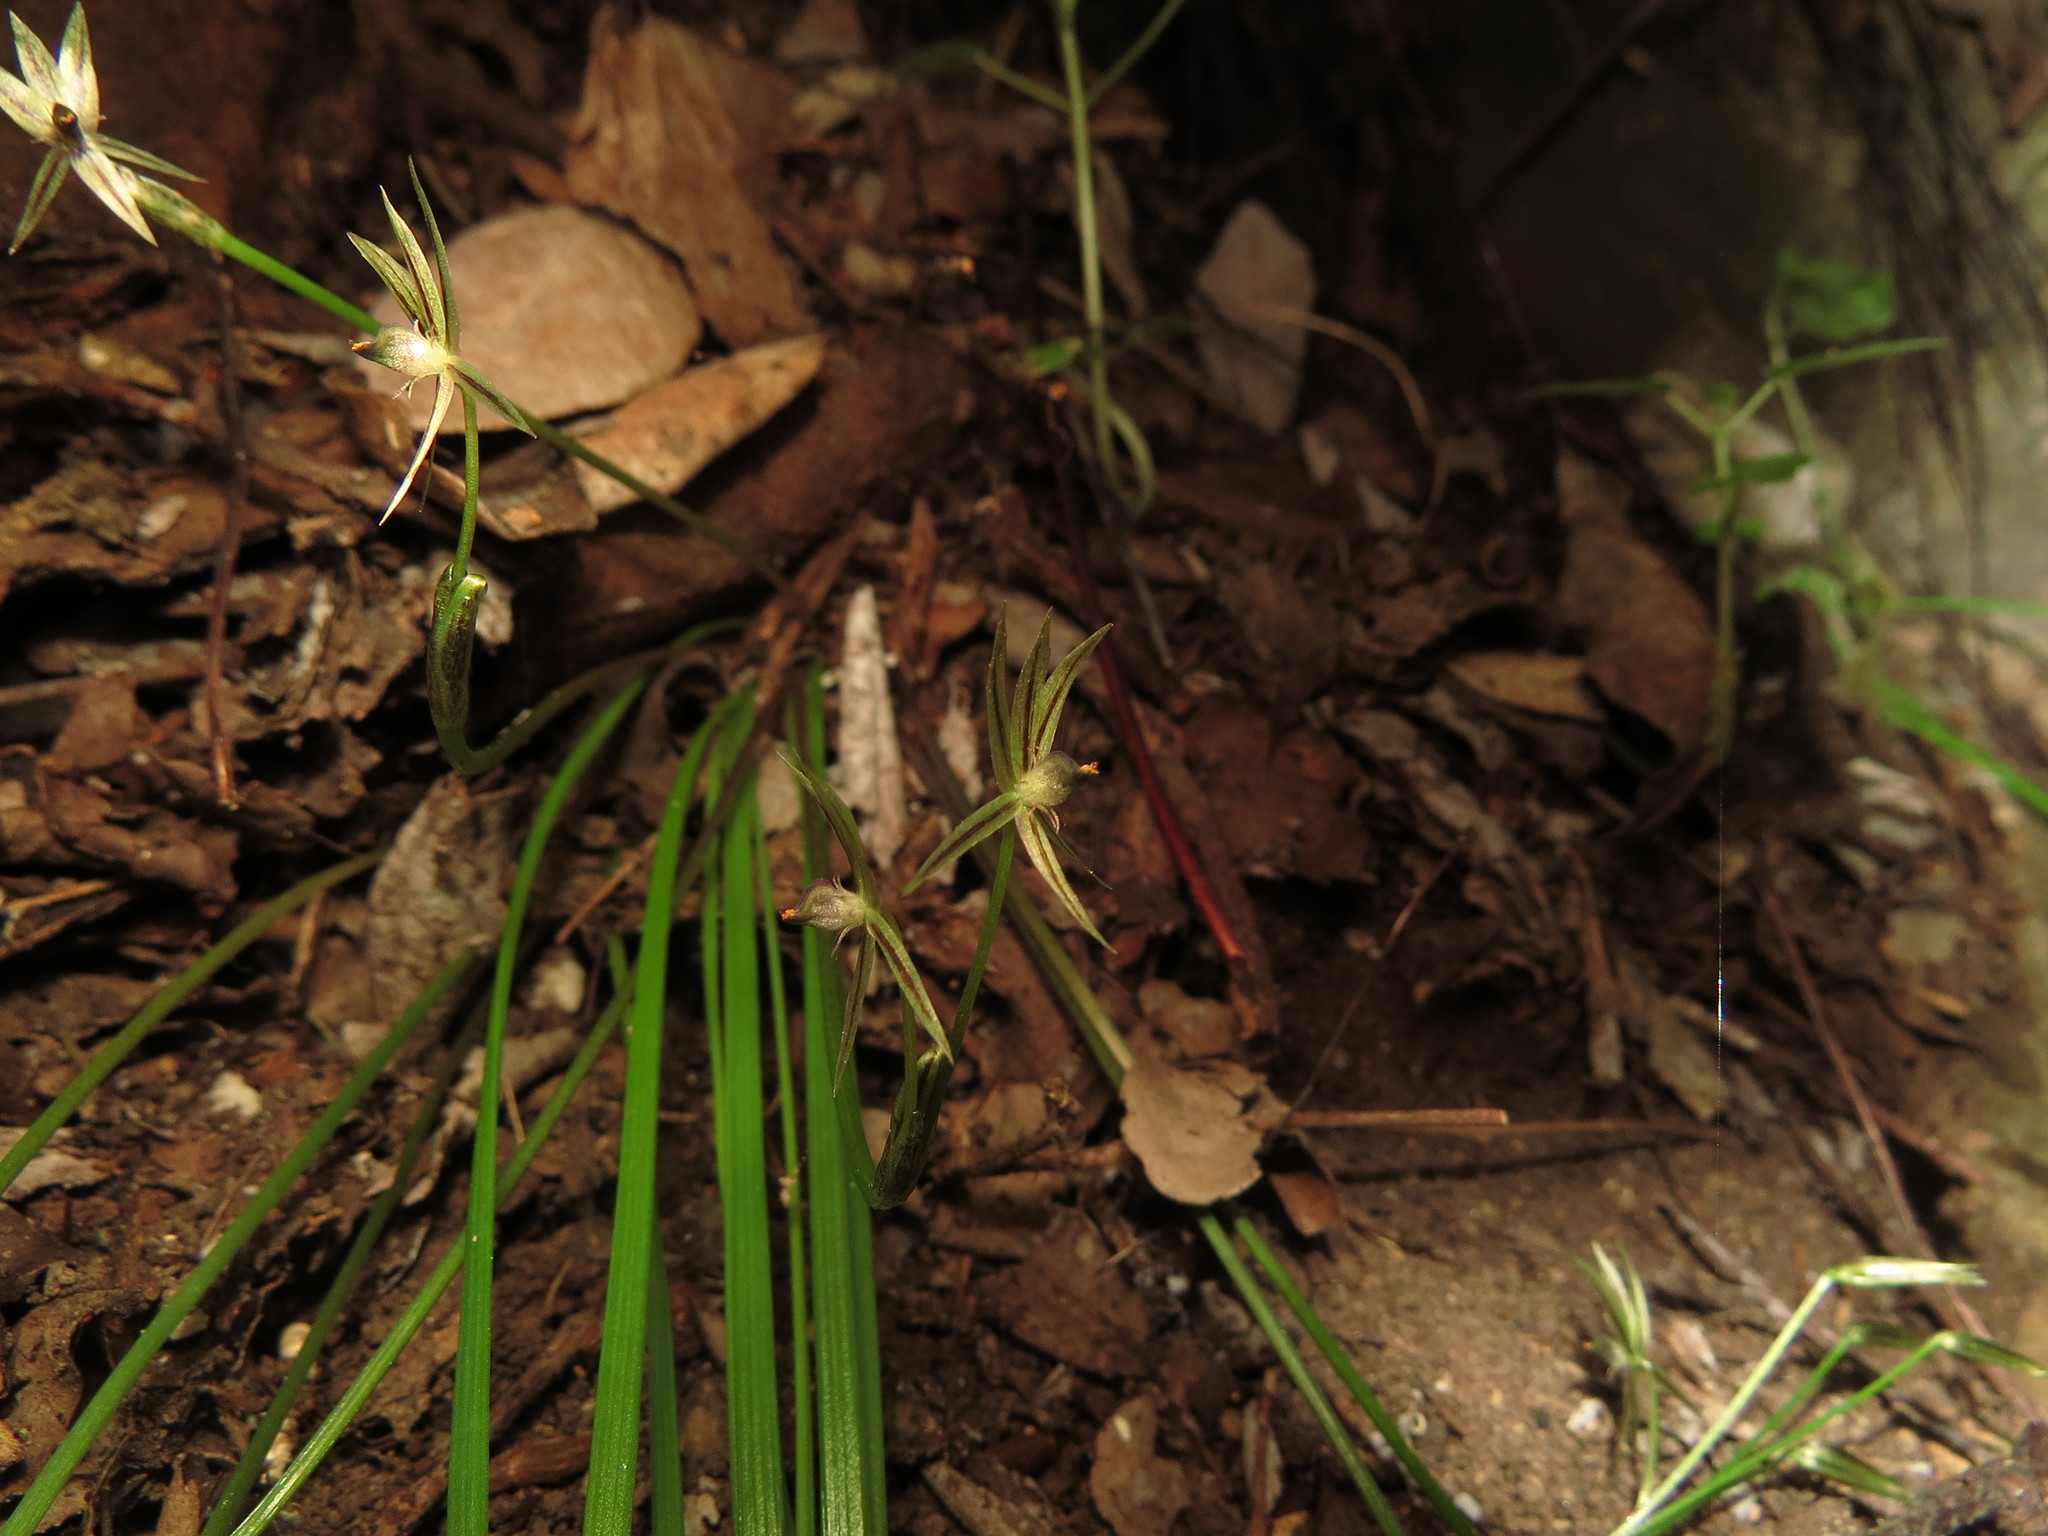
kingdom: Plantae
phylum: Tracheophyta
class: Liliopsida
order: Asparagales
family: Amaryllidaceae
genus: Miersia
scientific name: Miersia tenuiseta
